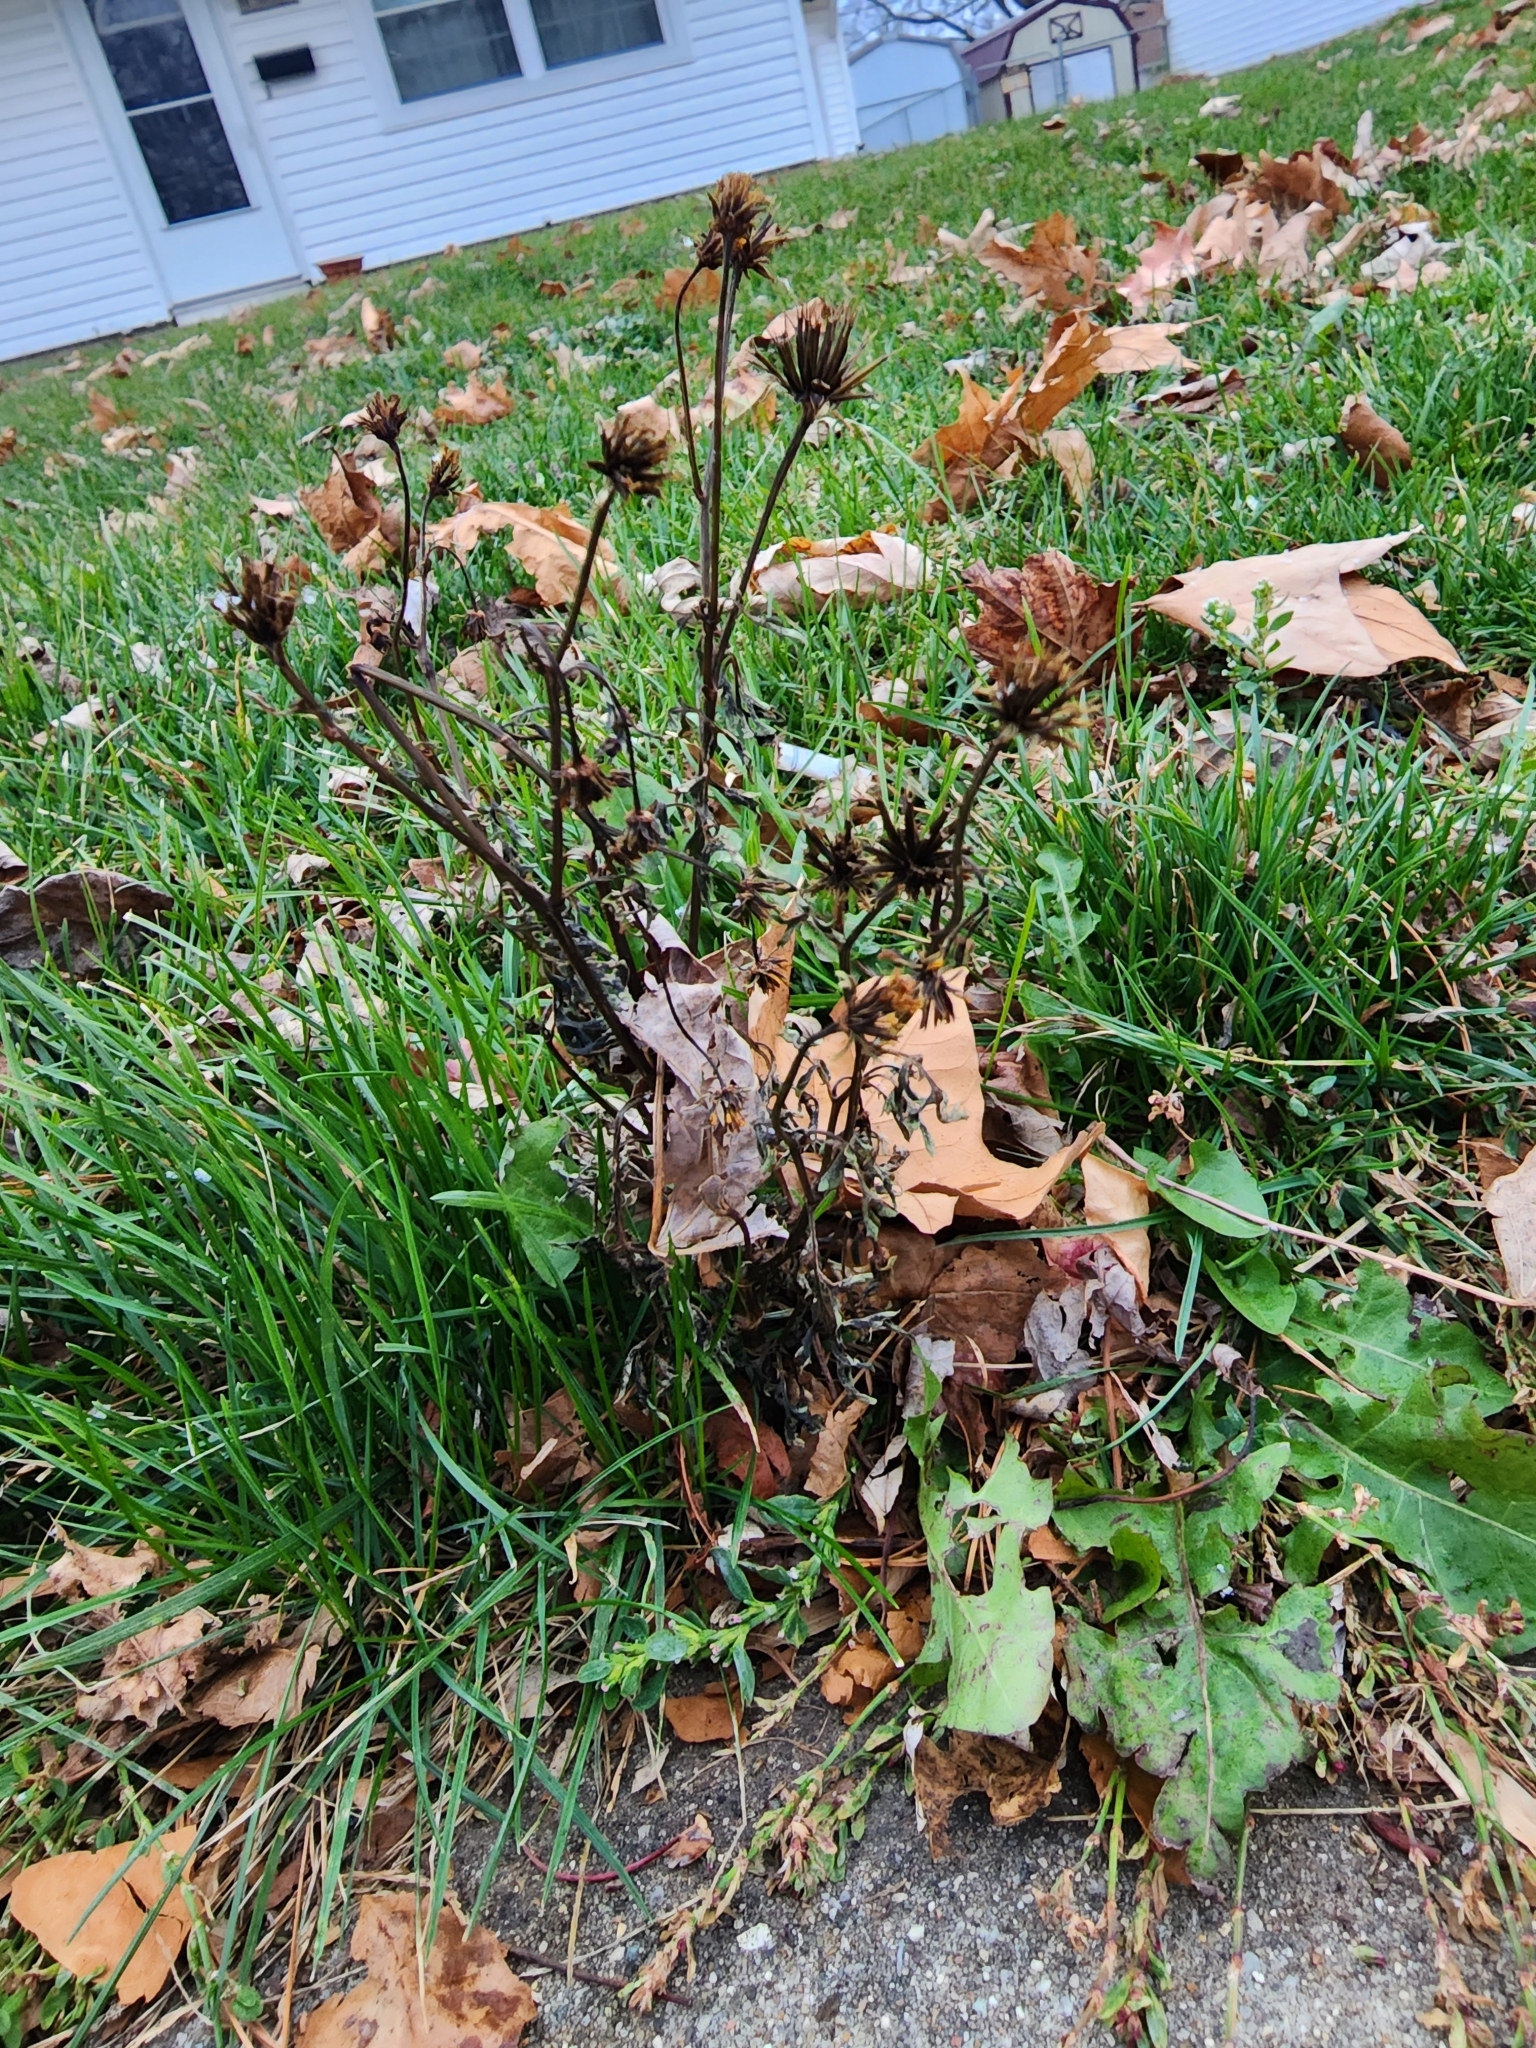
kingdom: Plantae
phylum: Tracheophyta
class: Magnoliopsida
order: Asterales
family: Asteraceae
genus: Bidens
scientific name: Bidens bipinnata
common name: Spanish-needles
